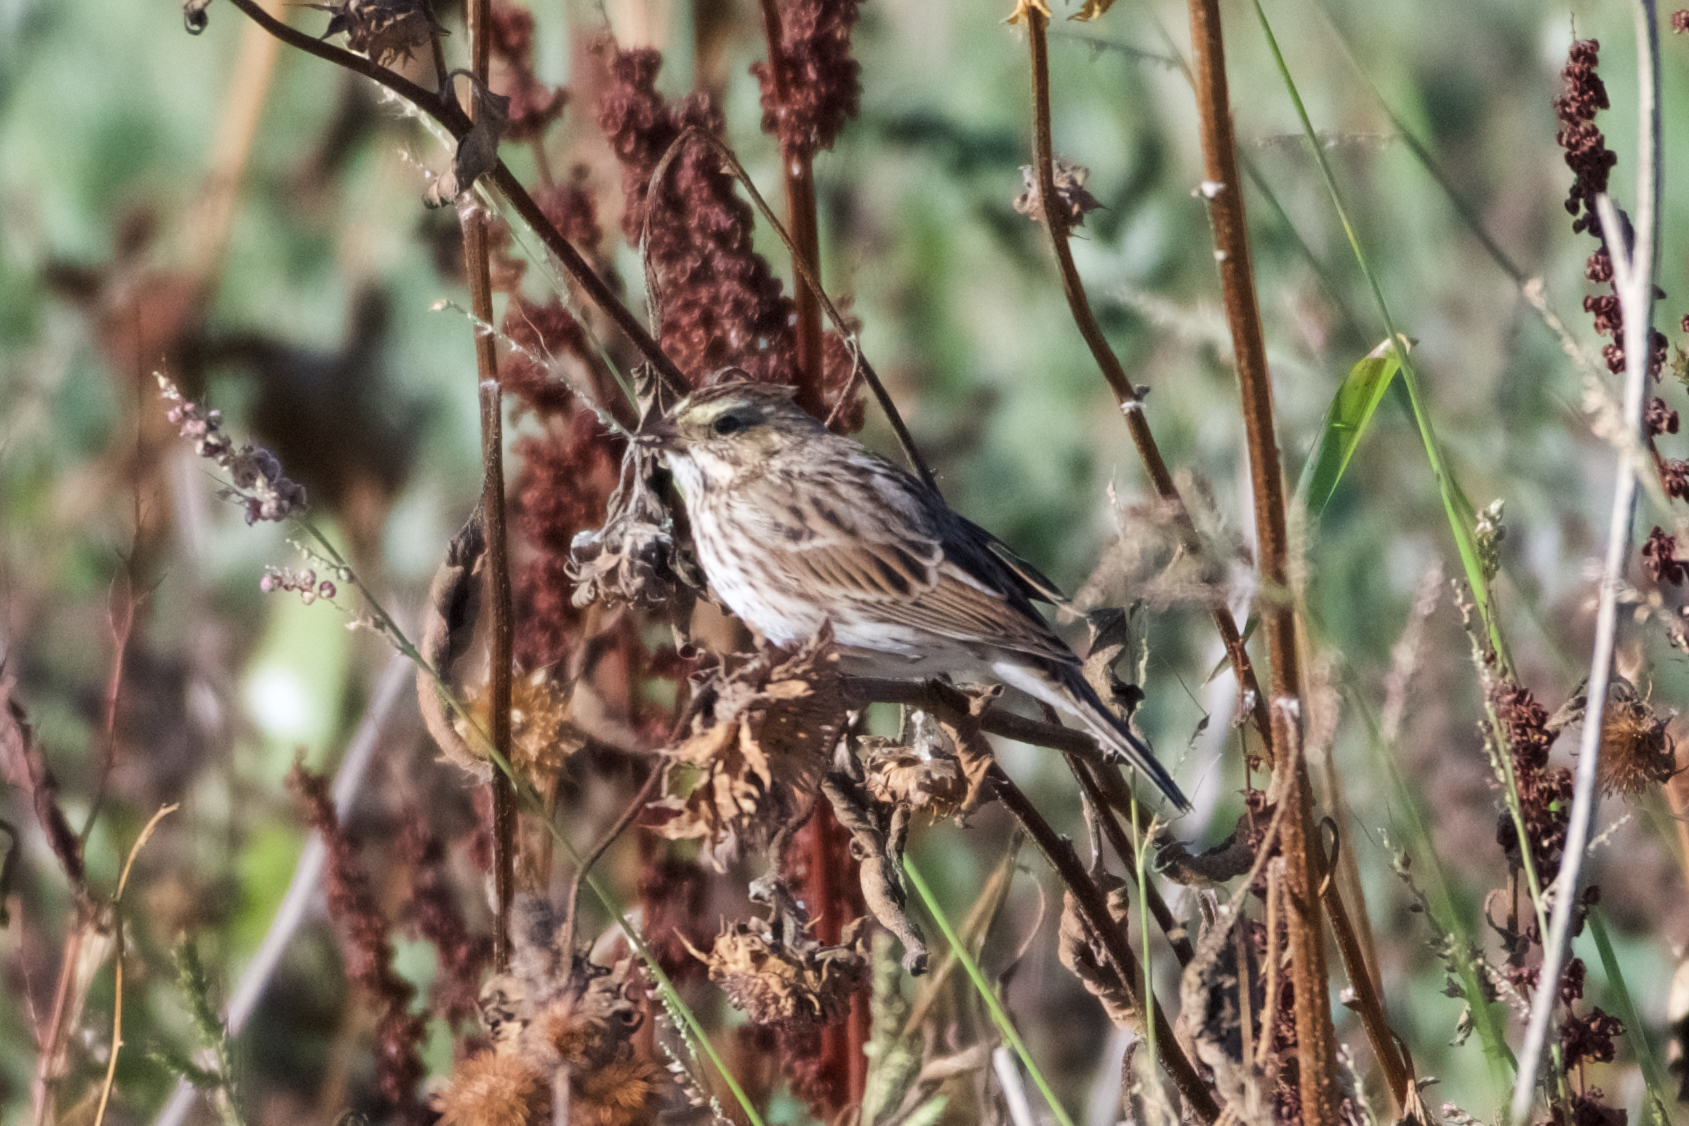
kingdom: Animalia
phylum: Chordata
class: Aves
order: Passeriformes
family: Passerellidae
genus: Passerculus
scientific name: Passerculus sandwichensis
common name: Savannah sparrow
